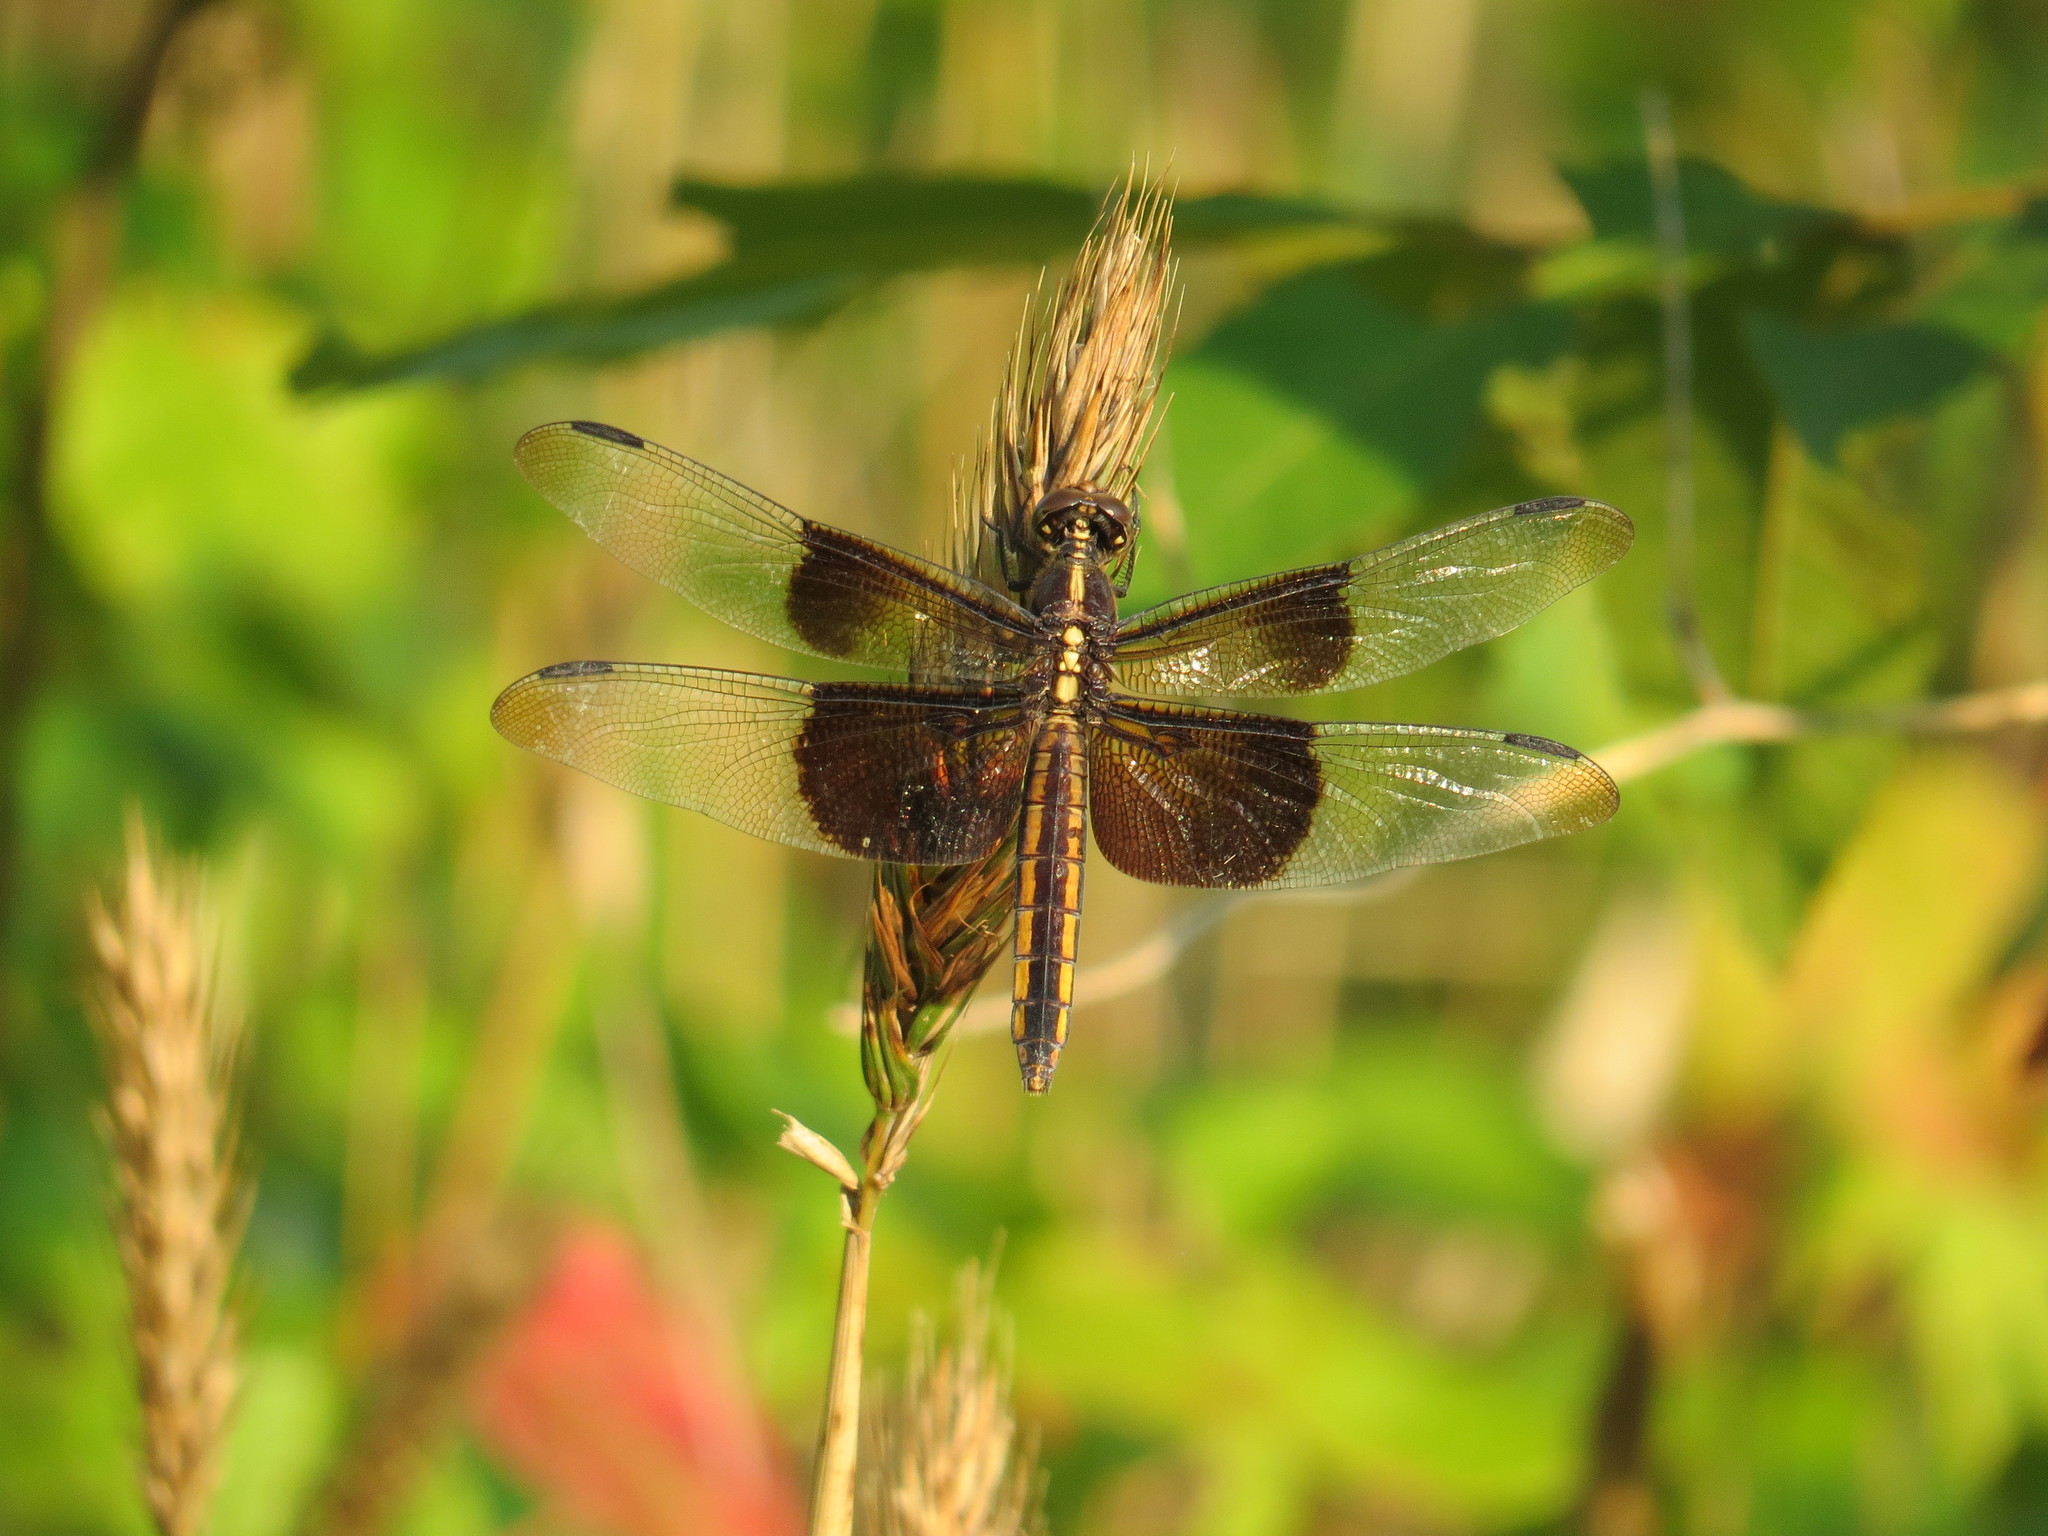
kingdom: Animalia
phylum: Arthropoda
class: Insecta
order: Odonata
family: Libellulidae
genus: Libellula
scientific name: Libellula luctuosa
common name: Widow skimmer
